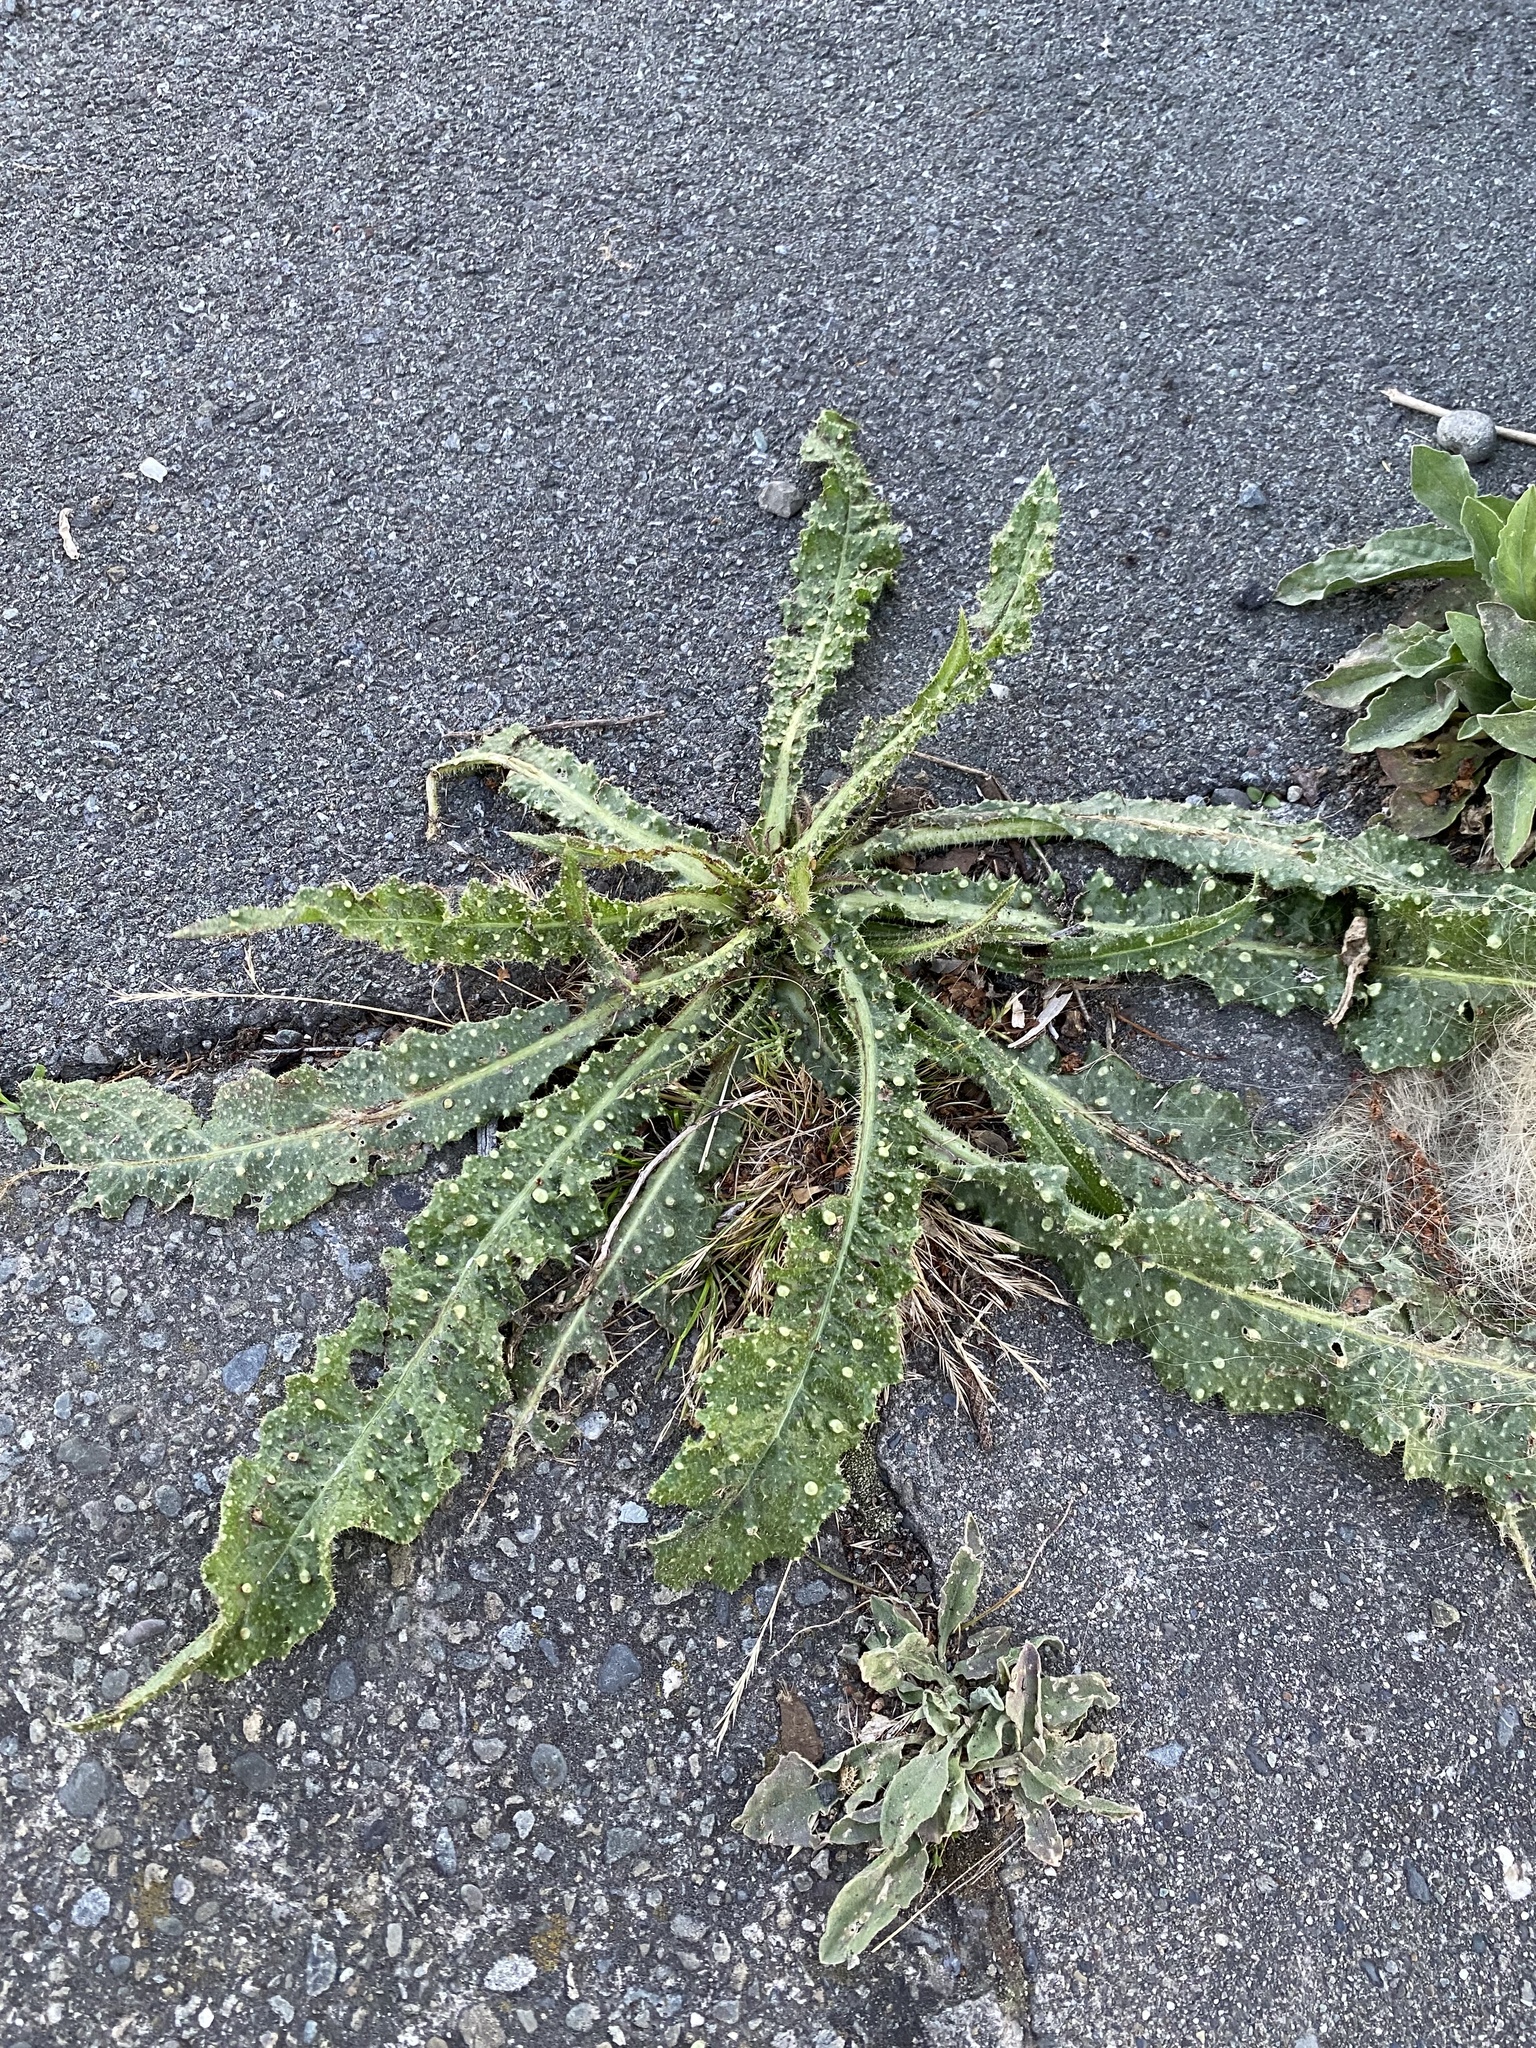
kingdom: Plantae
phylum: Tracheophyta
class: Magnoliopsida
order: Asterales
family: Asteraceae
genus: Helminthotheca
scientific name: Helminthotheca echioides
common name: Ox-tongue
